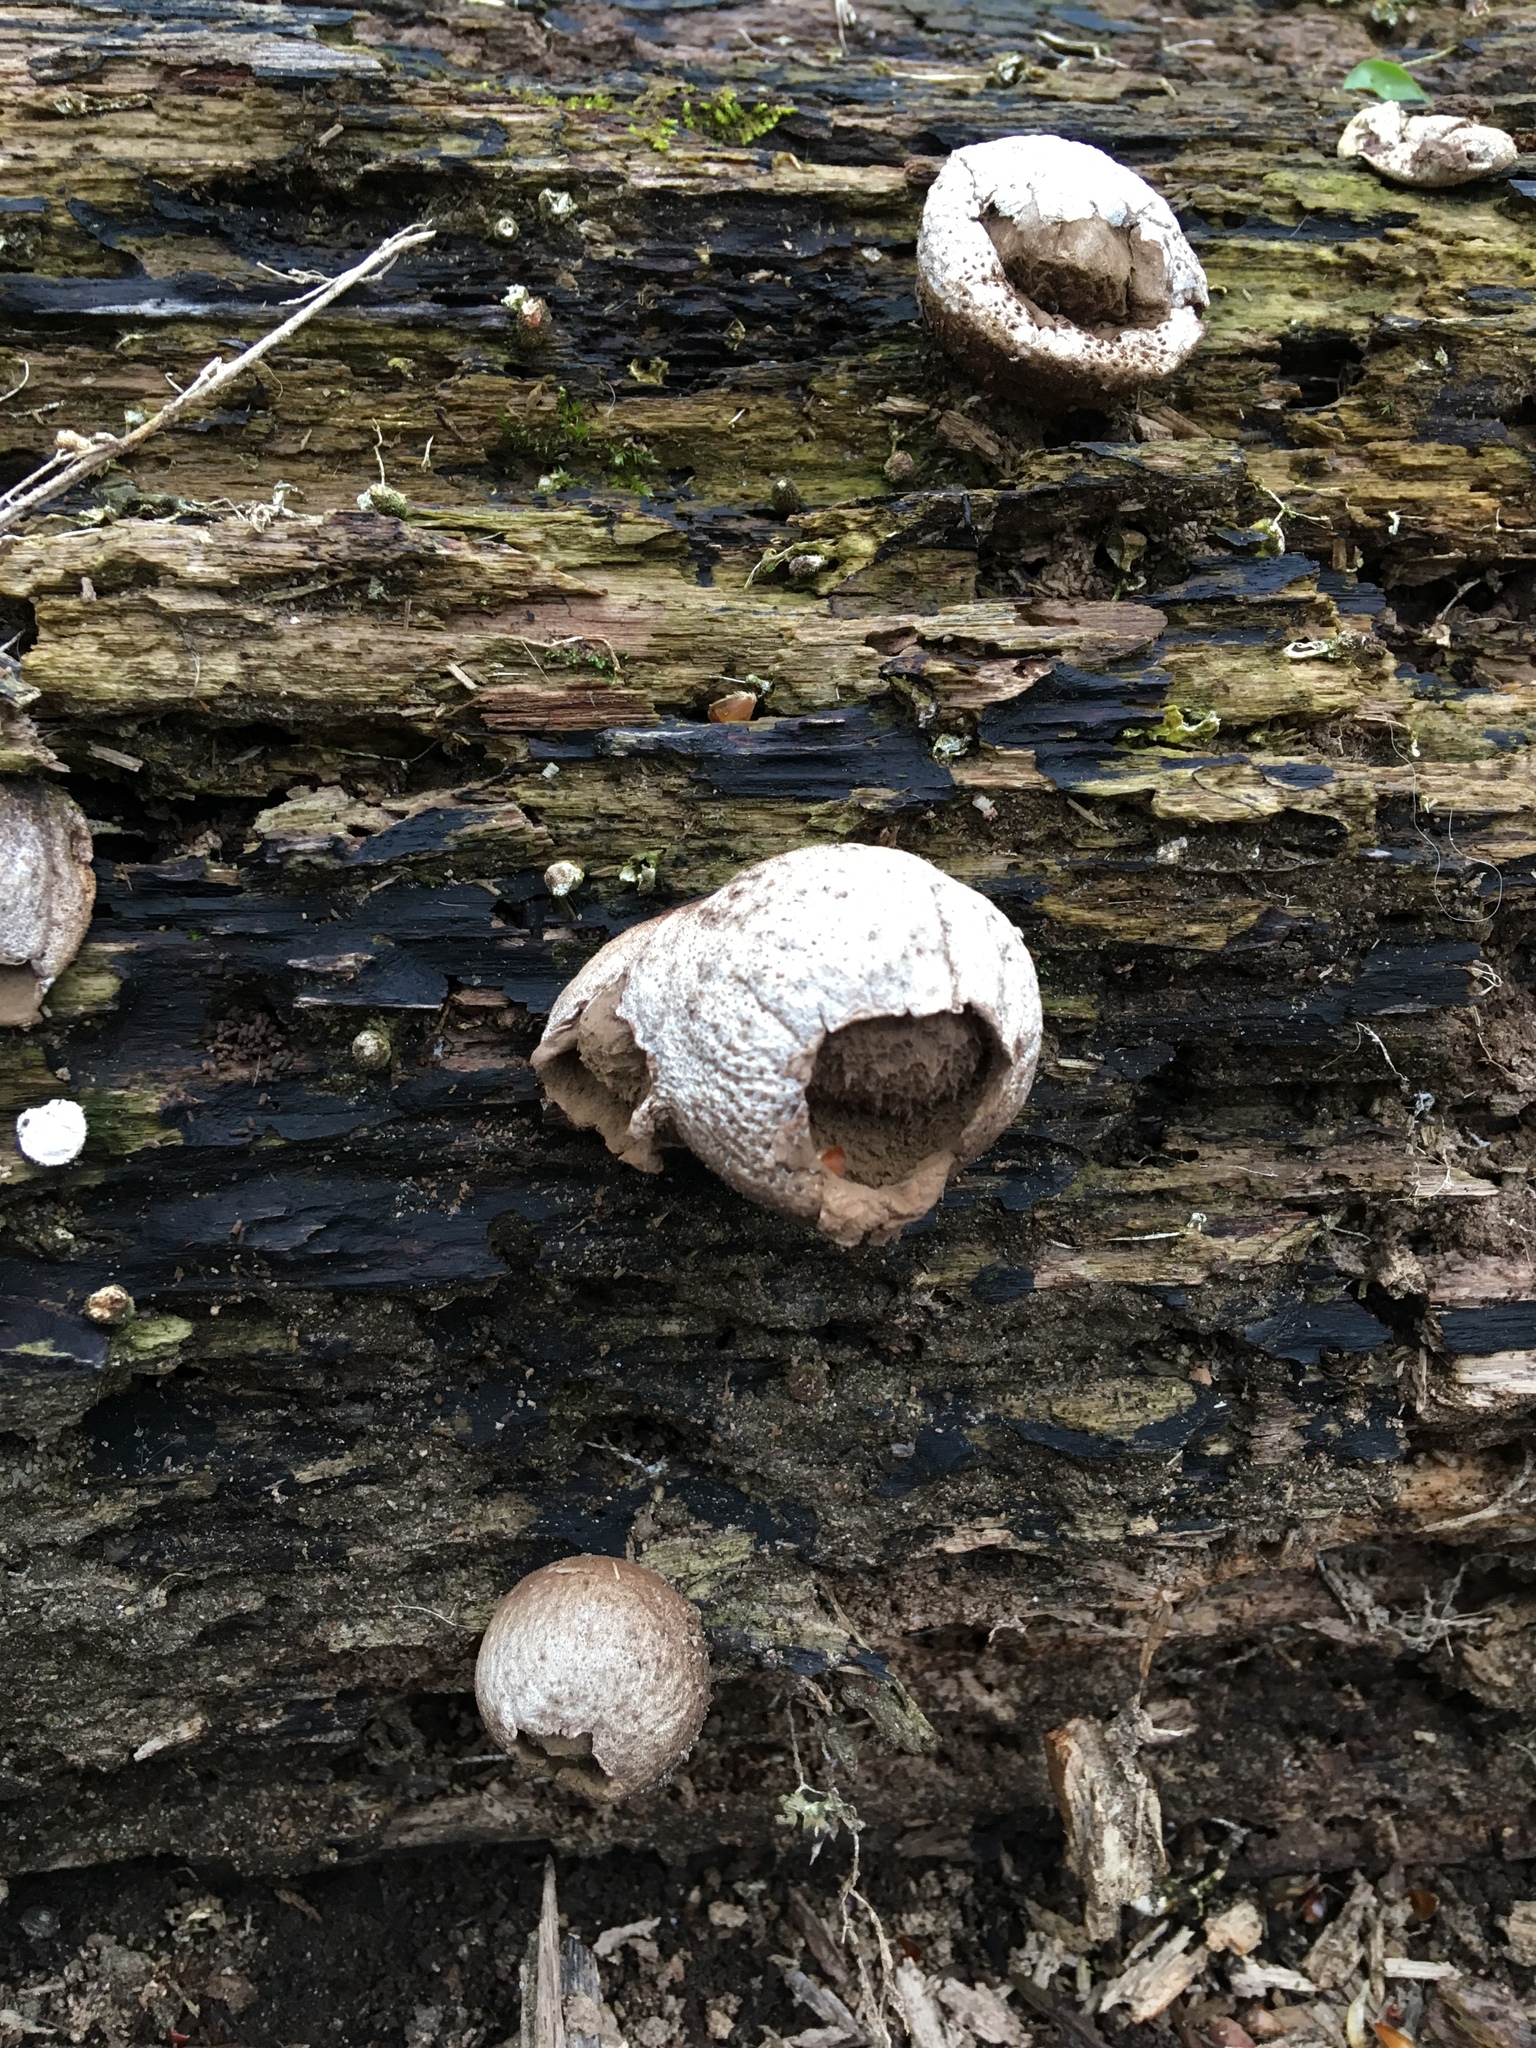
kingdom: Fungi
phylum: Basidiomycota
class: Agaricomycetes
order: Agaricales
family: Lycoperdaceae
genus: Apioperdon
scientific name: Apioperdon pyriforme
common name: Pear-shaped puffball
